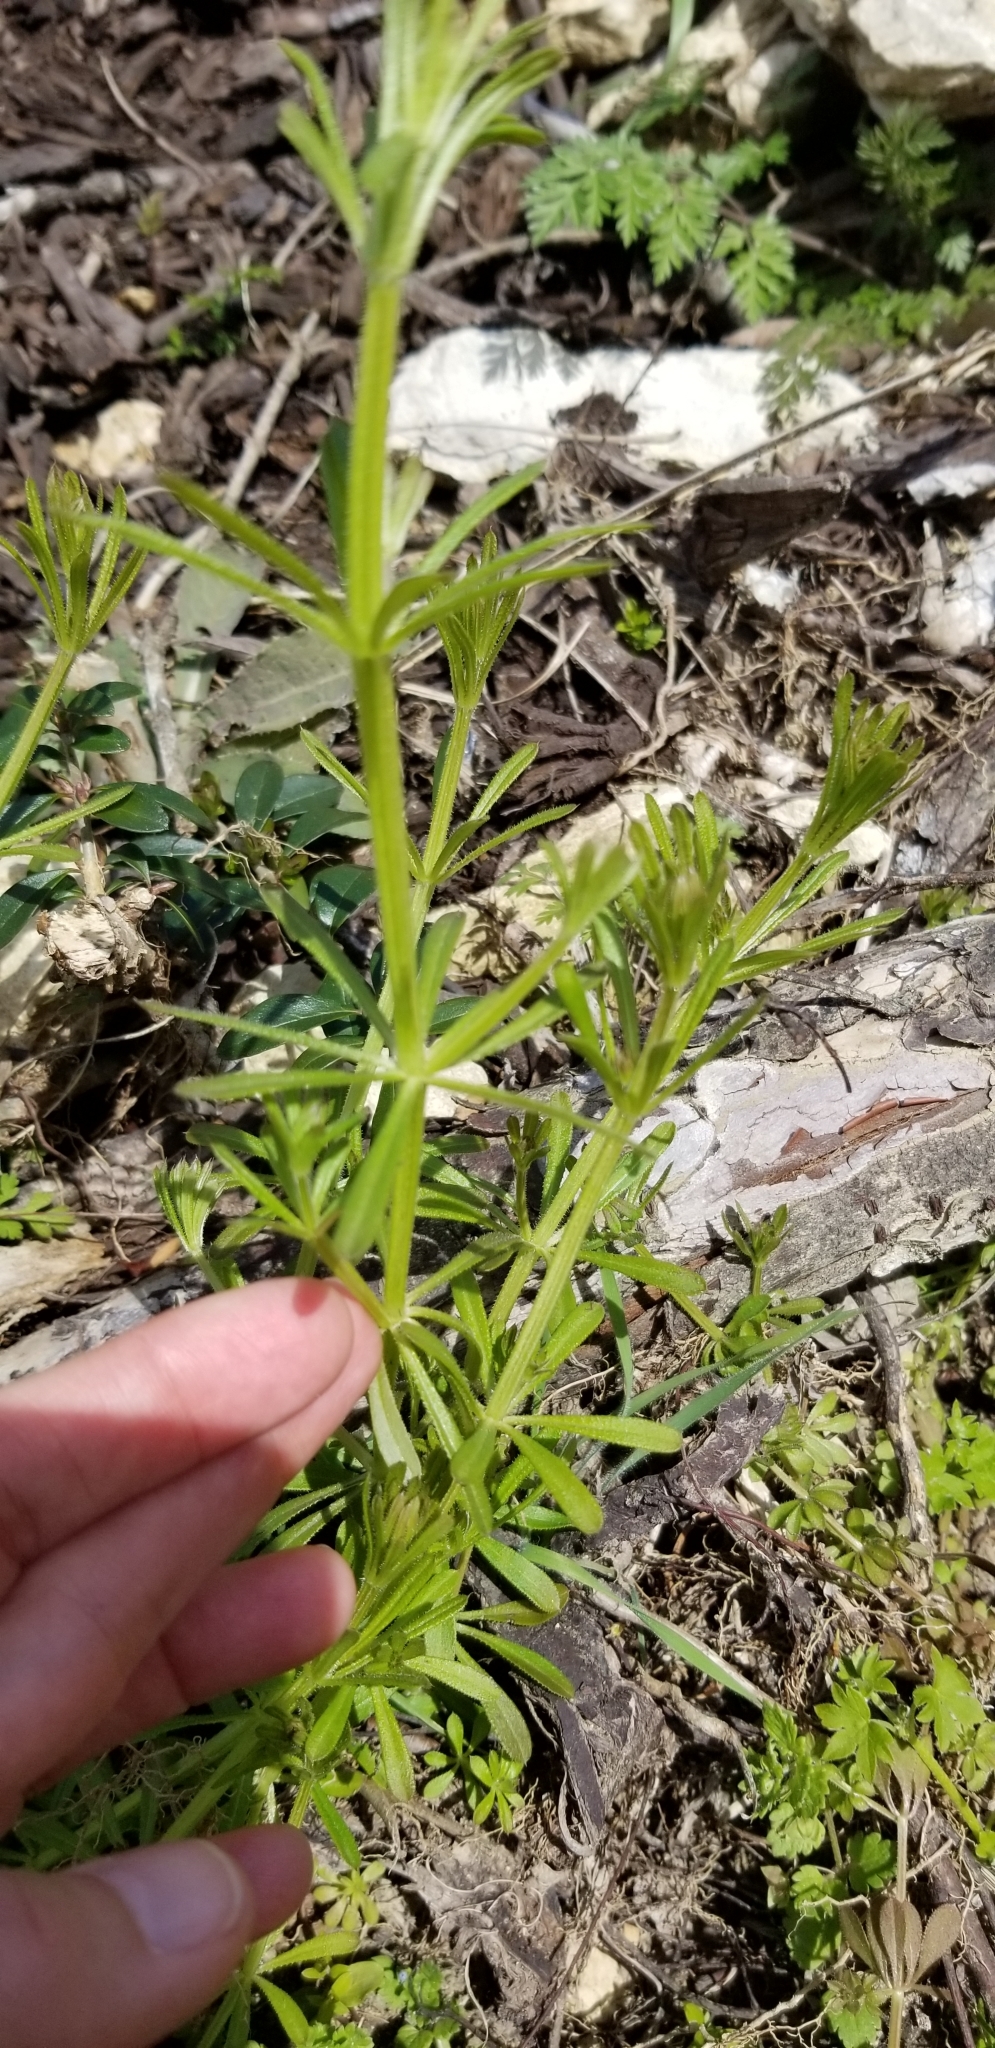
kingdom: Plantae
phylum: Tracheophyta
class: Magnoliopsida
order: Gentianales
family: Rubiaceae
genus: Galium
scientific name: Galium aparine
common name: Cleavers
